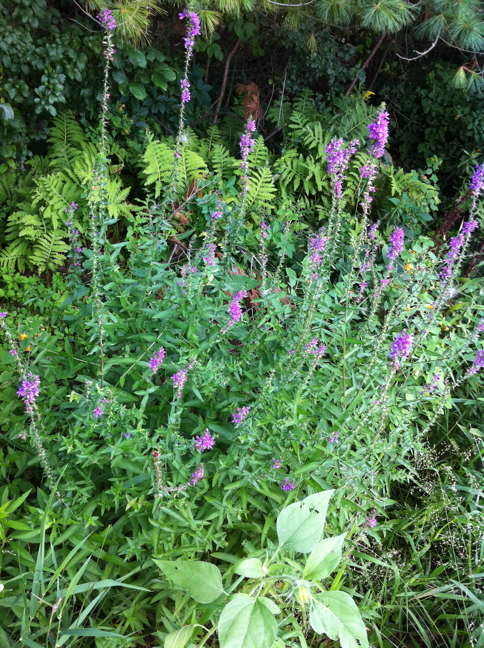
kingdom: Plantae
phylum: Tracheophyta
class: Polypodiopsida
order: Polypodiales
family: Onocleaceae
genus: Onoclea
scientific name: Onoclea sensibilis
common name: Sensitive fern
